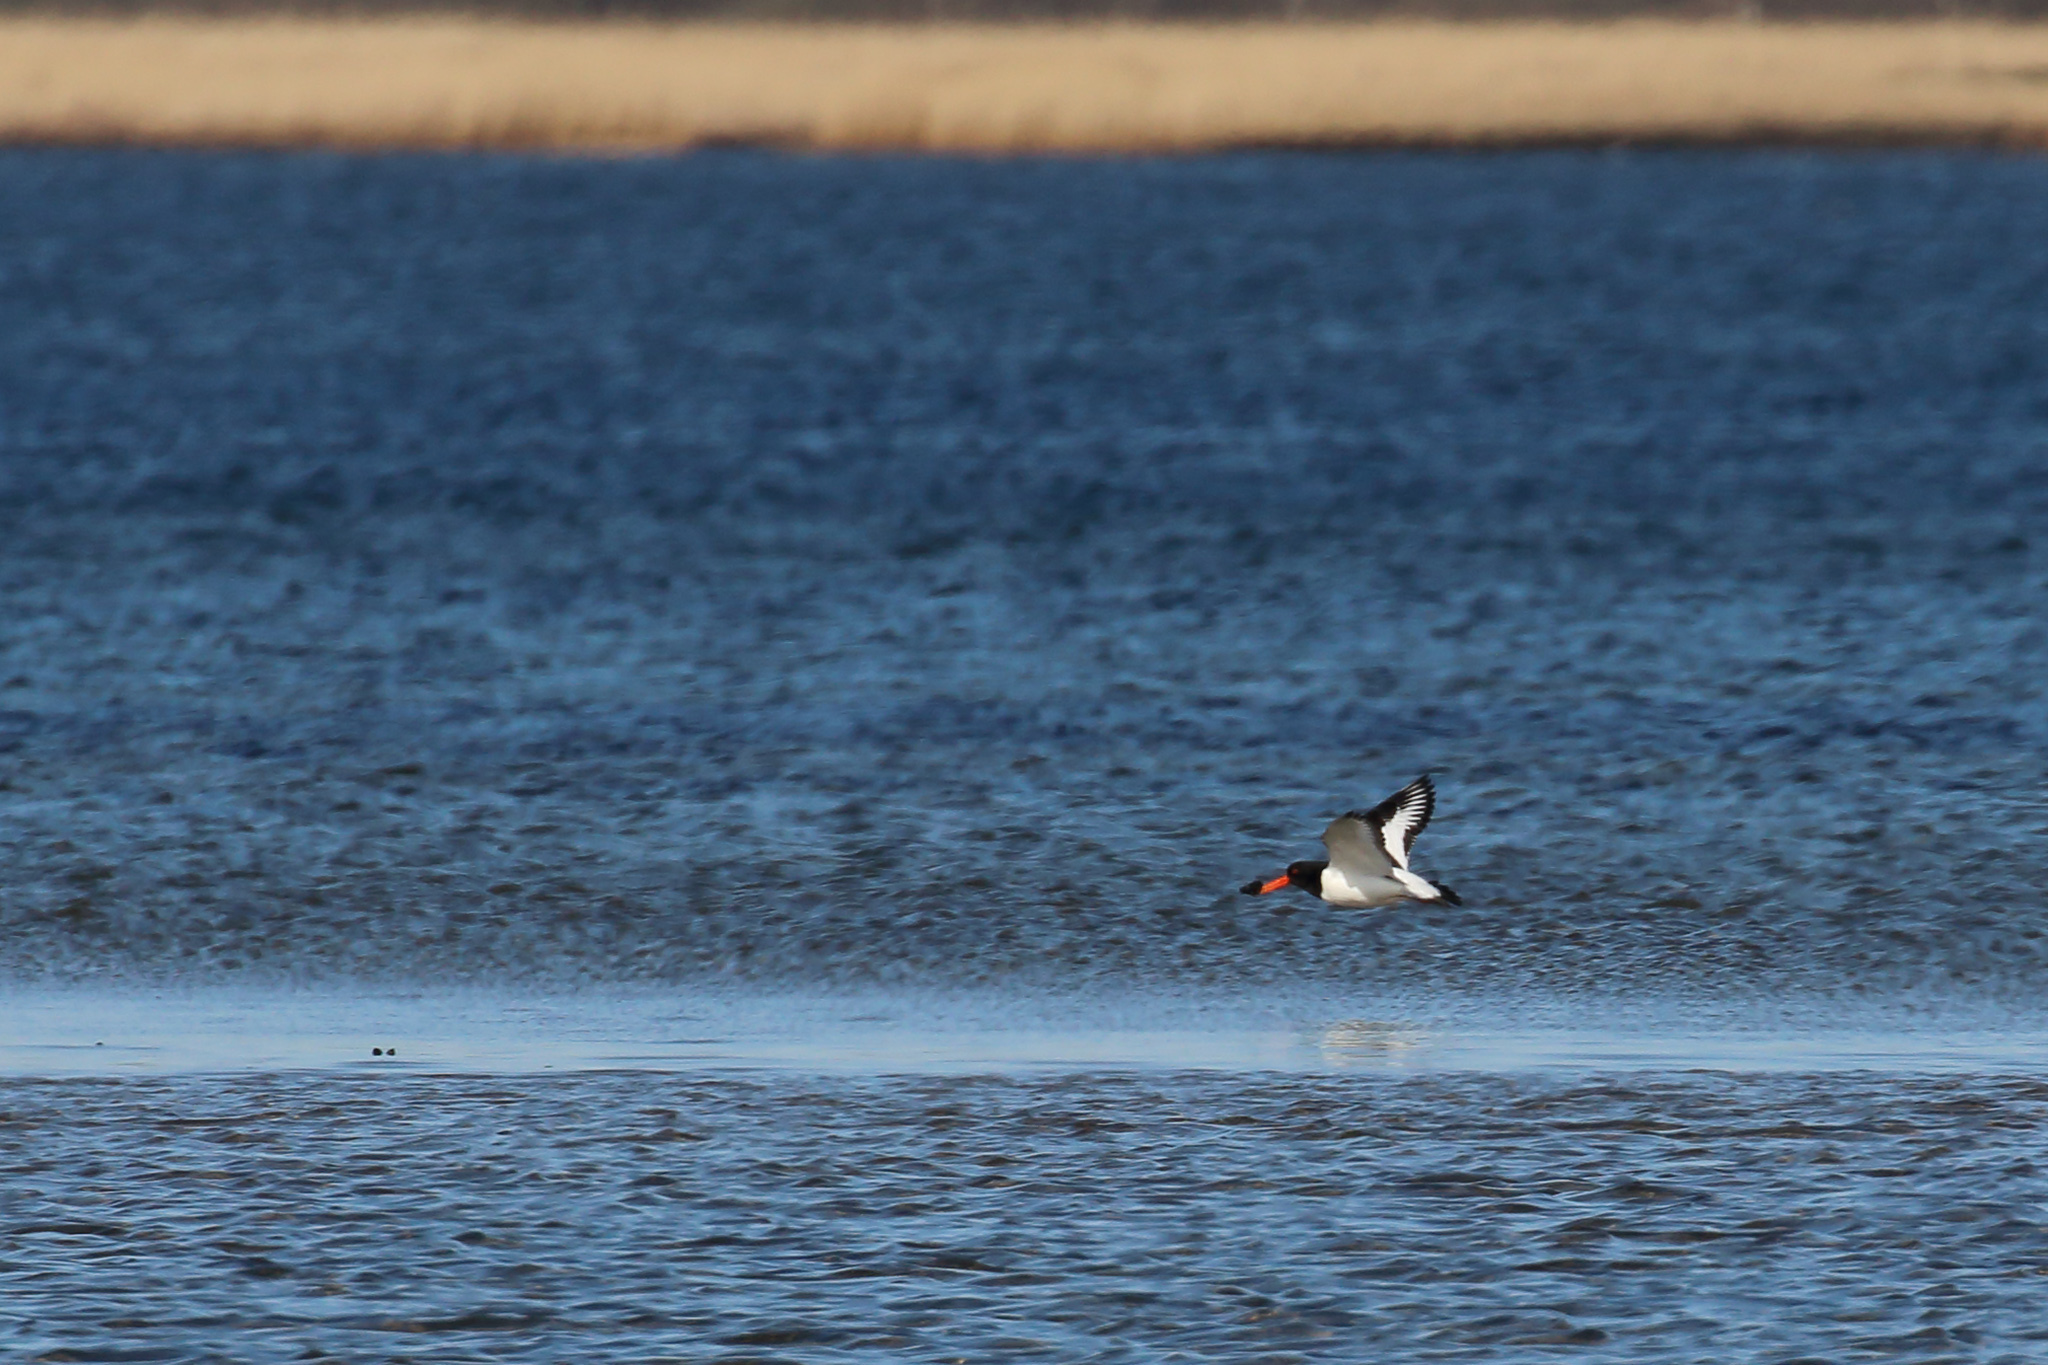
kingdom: Animalia
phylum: Chordata
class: Aves
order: Charadriiformes
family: Haematopodidae
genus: Haematopus
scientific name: Haematopus ostralegus
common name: Eurasian oystercatcher
